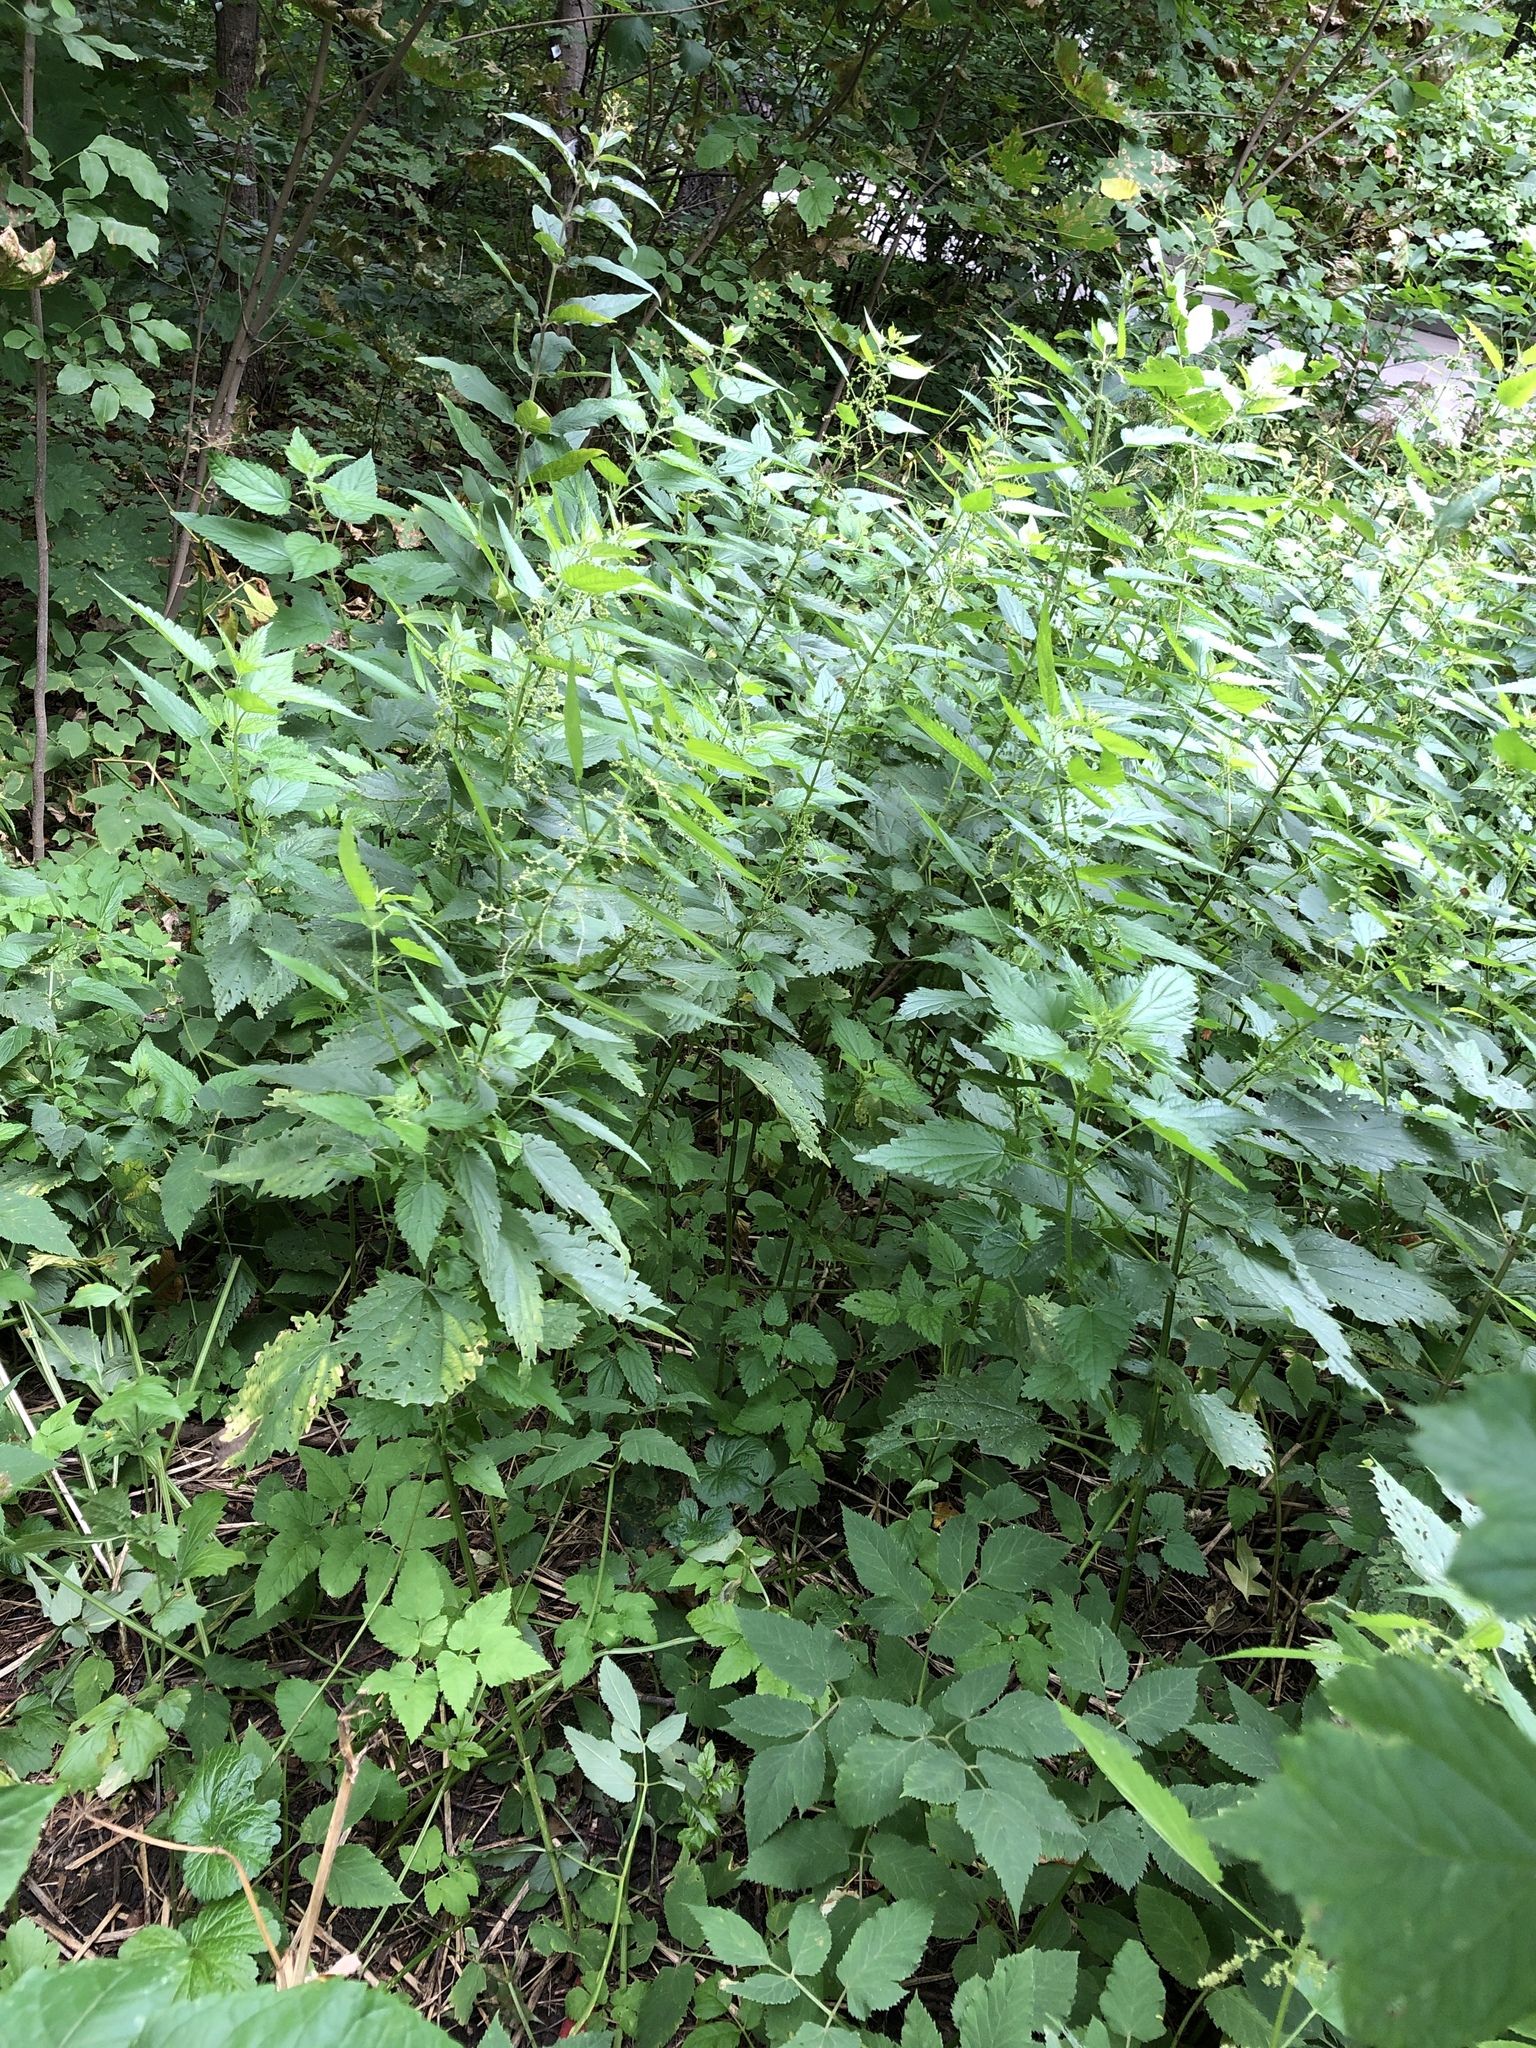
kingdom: Plantae
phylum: Tracheophyta
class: Magnoliopsida
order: Rosales
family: Urticaceae
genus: Urtica
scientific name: Urtica dioica
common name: Common nettle
